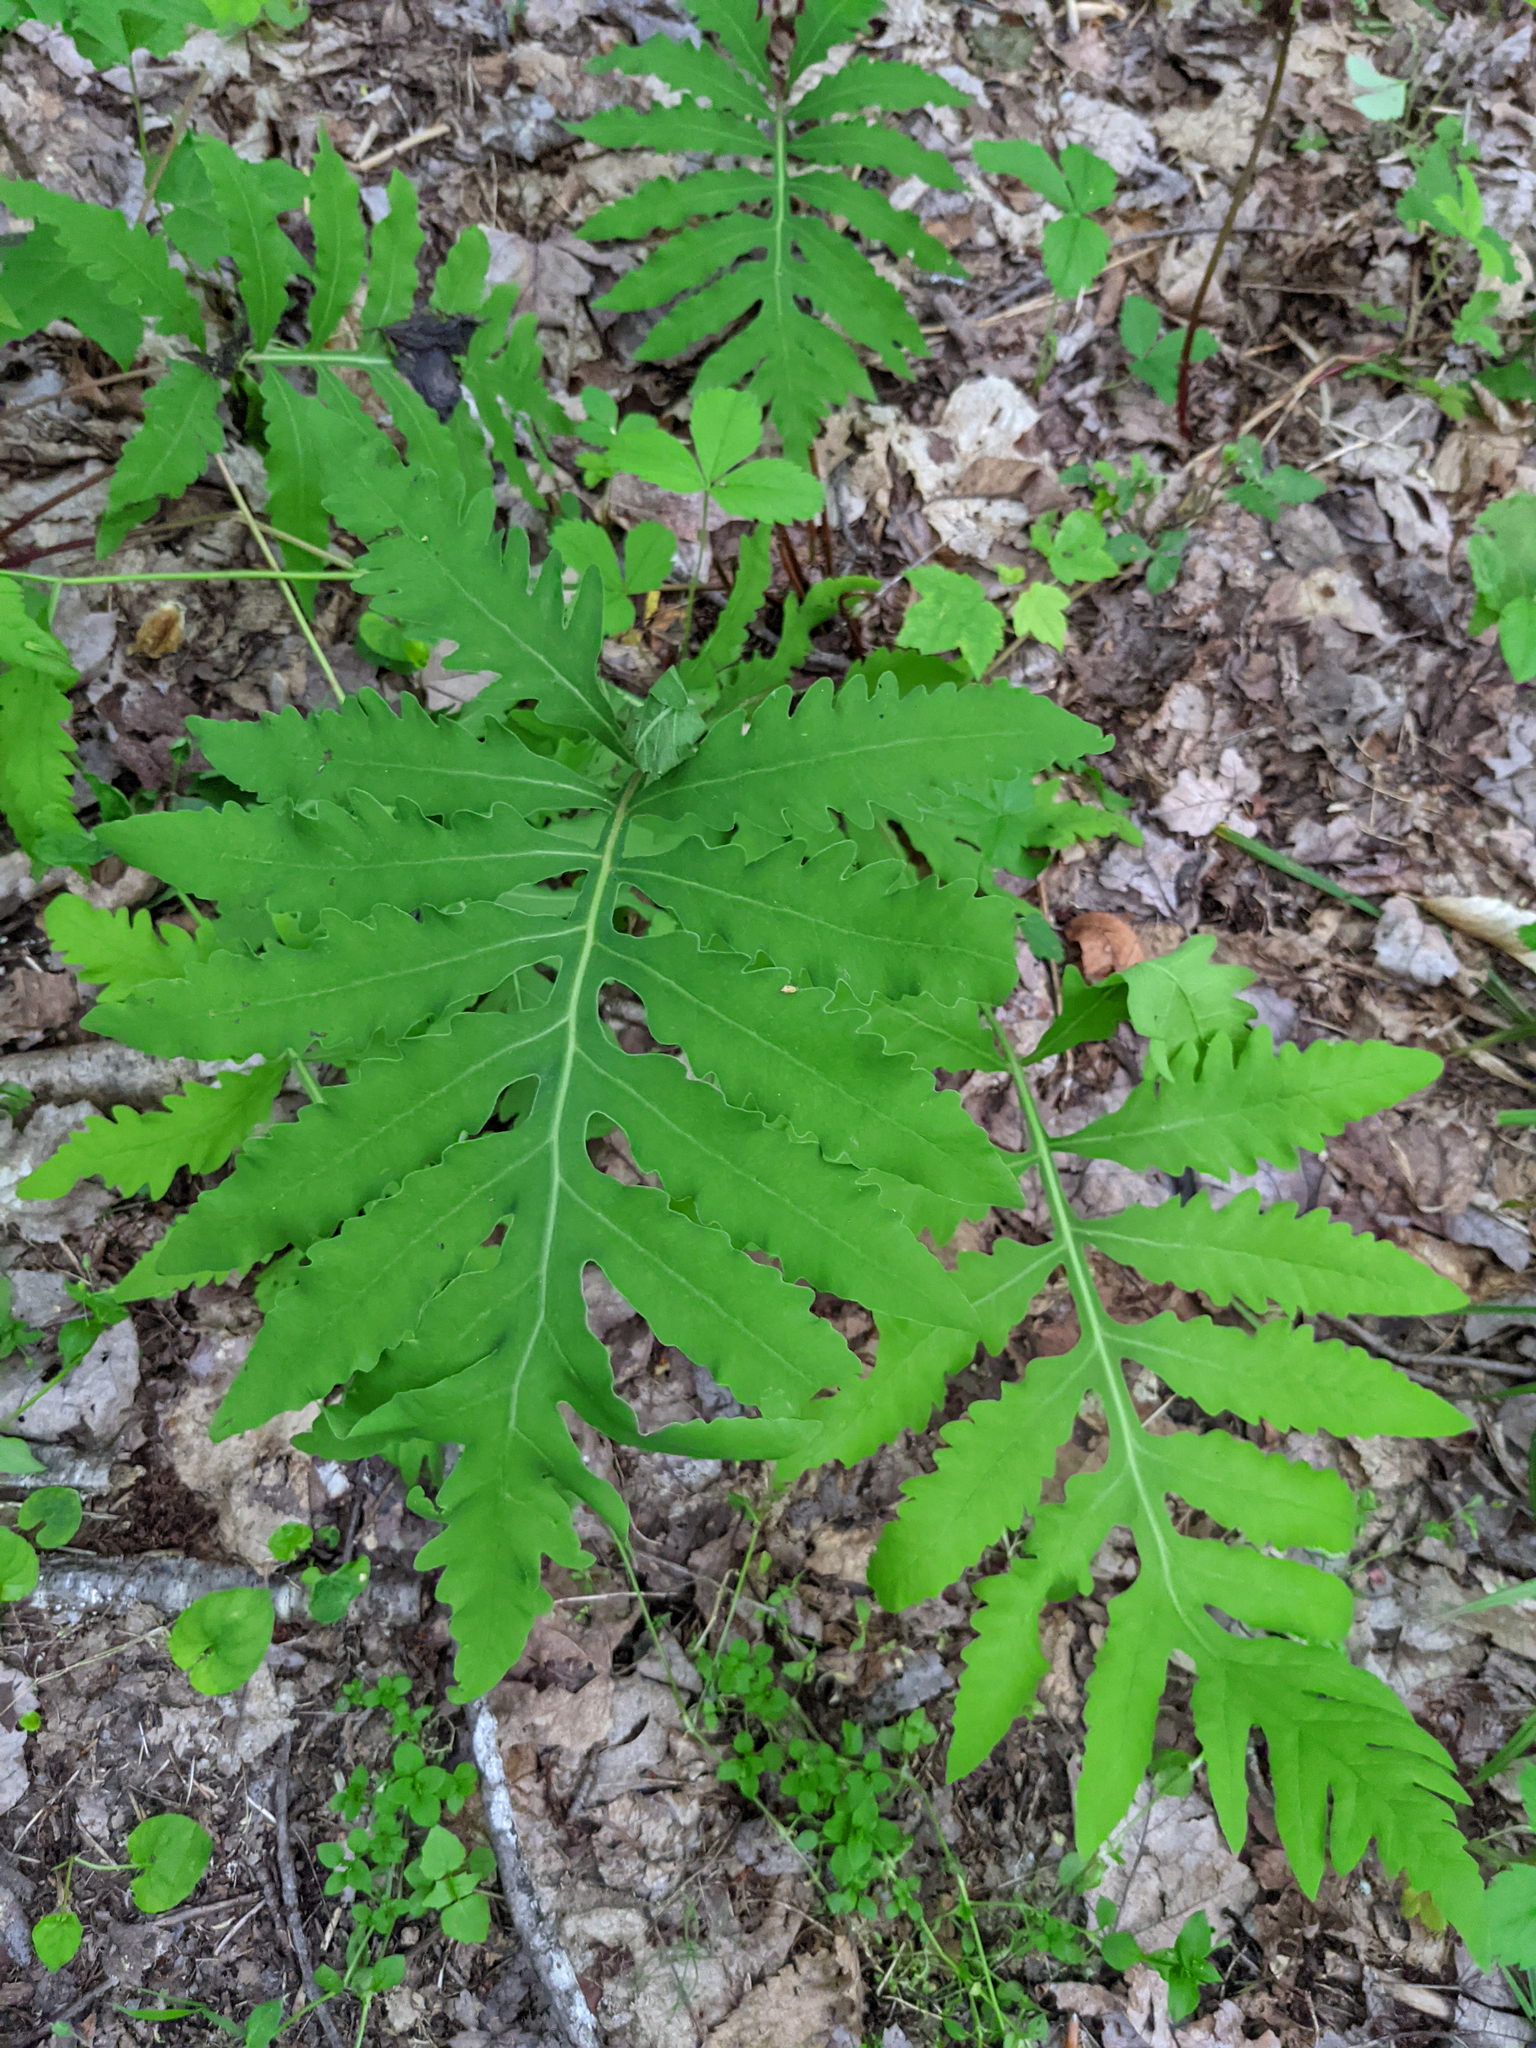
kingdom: Plantae
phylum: Tracheophyta
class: Polypodiopsida
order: Polypodiales
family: Onocleaceae
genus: Onoclea
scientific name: Onoclea sensibilis
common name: Sensitive fern
